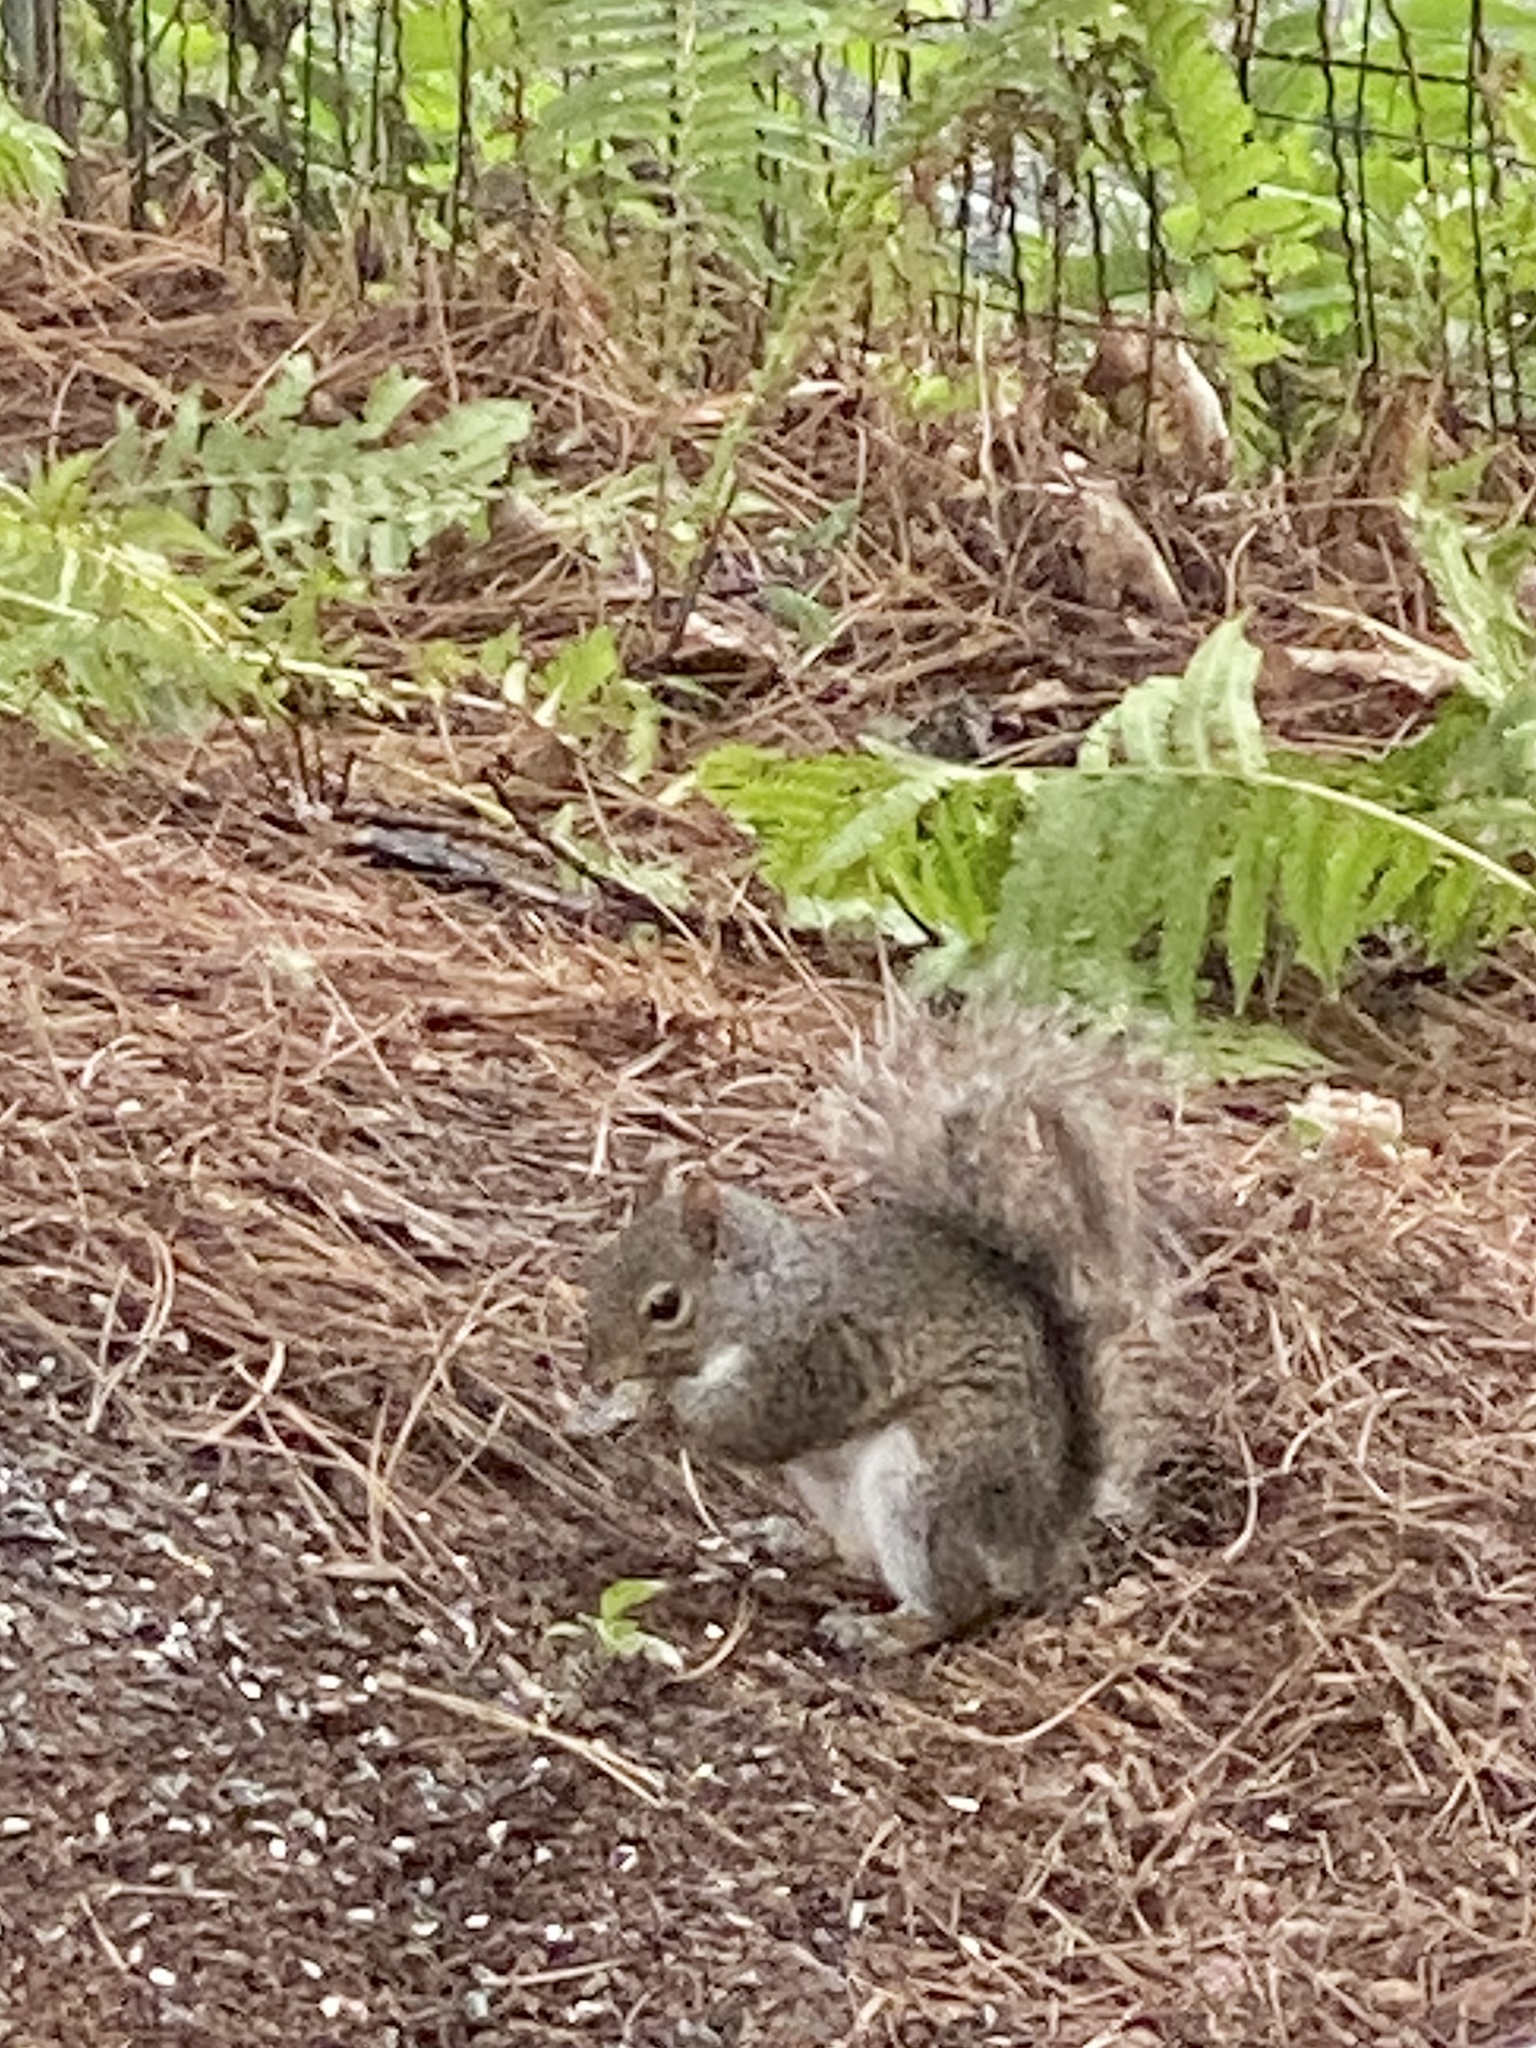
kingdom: Animalia
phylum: Chordata
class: Mammalia
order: Rodentia
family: Sciuridae
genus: Sciurus
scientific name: Sciurus carolinensis
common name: Eastern gray squirrel
